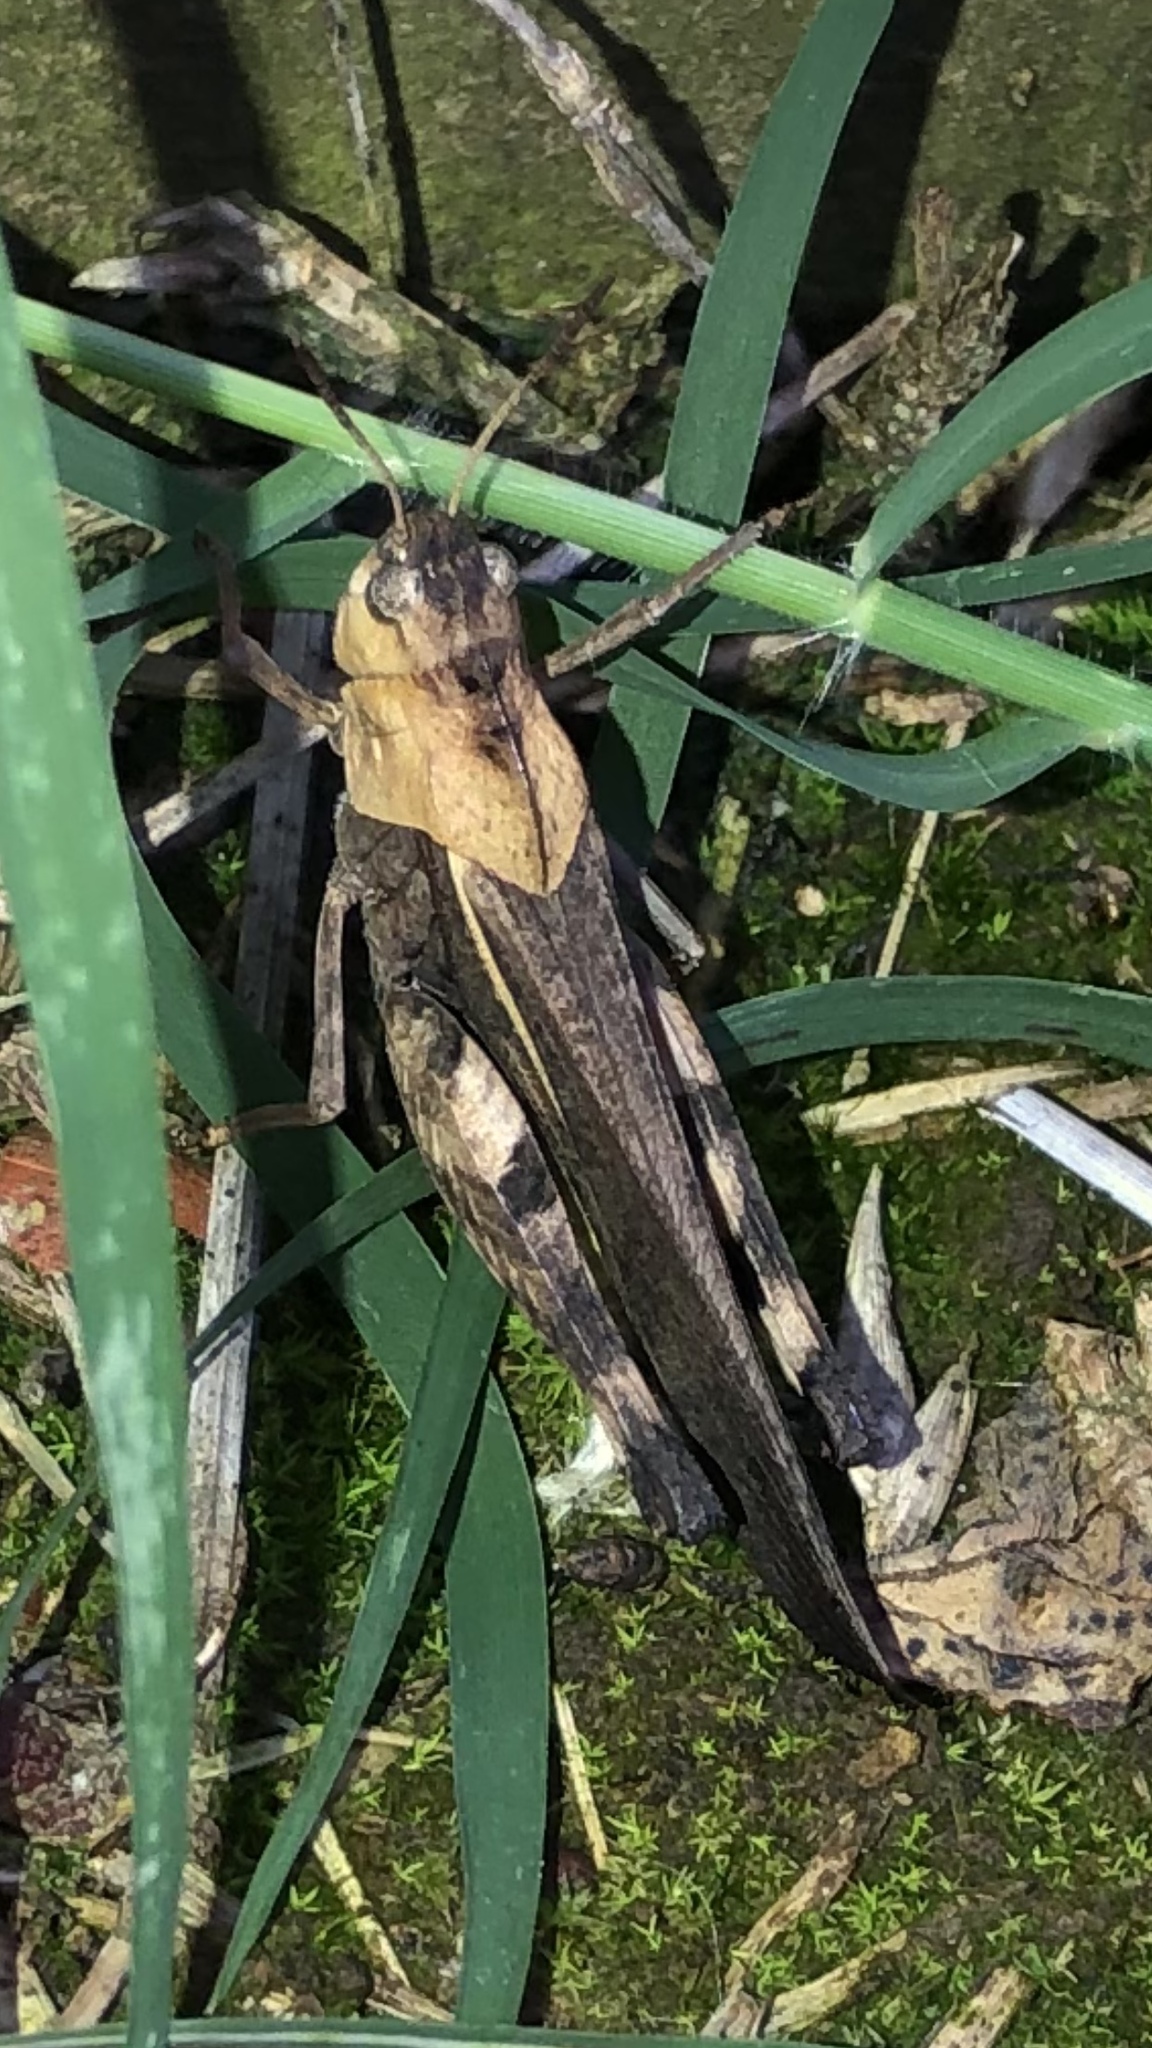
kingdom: Animalia
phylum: Arthropoda
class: Insecta
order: Orthoptera
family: Acrididae
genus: Arphia
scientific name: Arphia simplex
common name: Plains yellow-winged grasshopper
